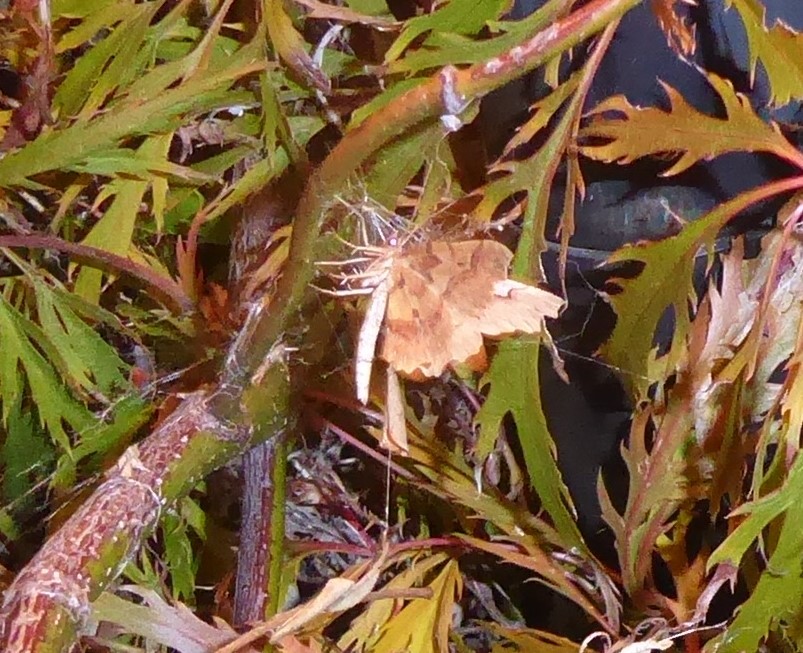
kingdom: Animalia
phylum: Arthropoda
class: Insecta
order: Lepidoptera
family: Geometridae
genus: Ischalis
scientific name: Ischalis fortinata
